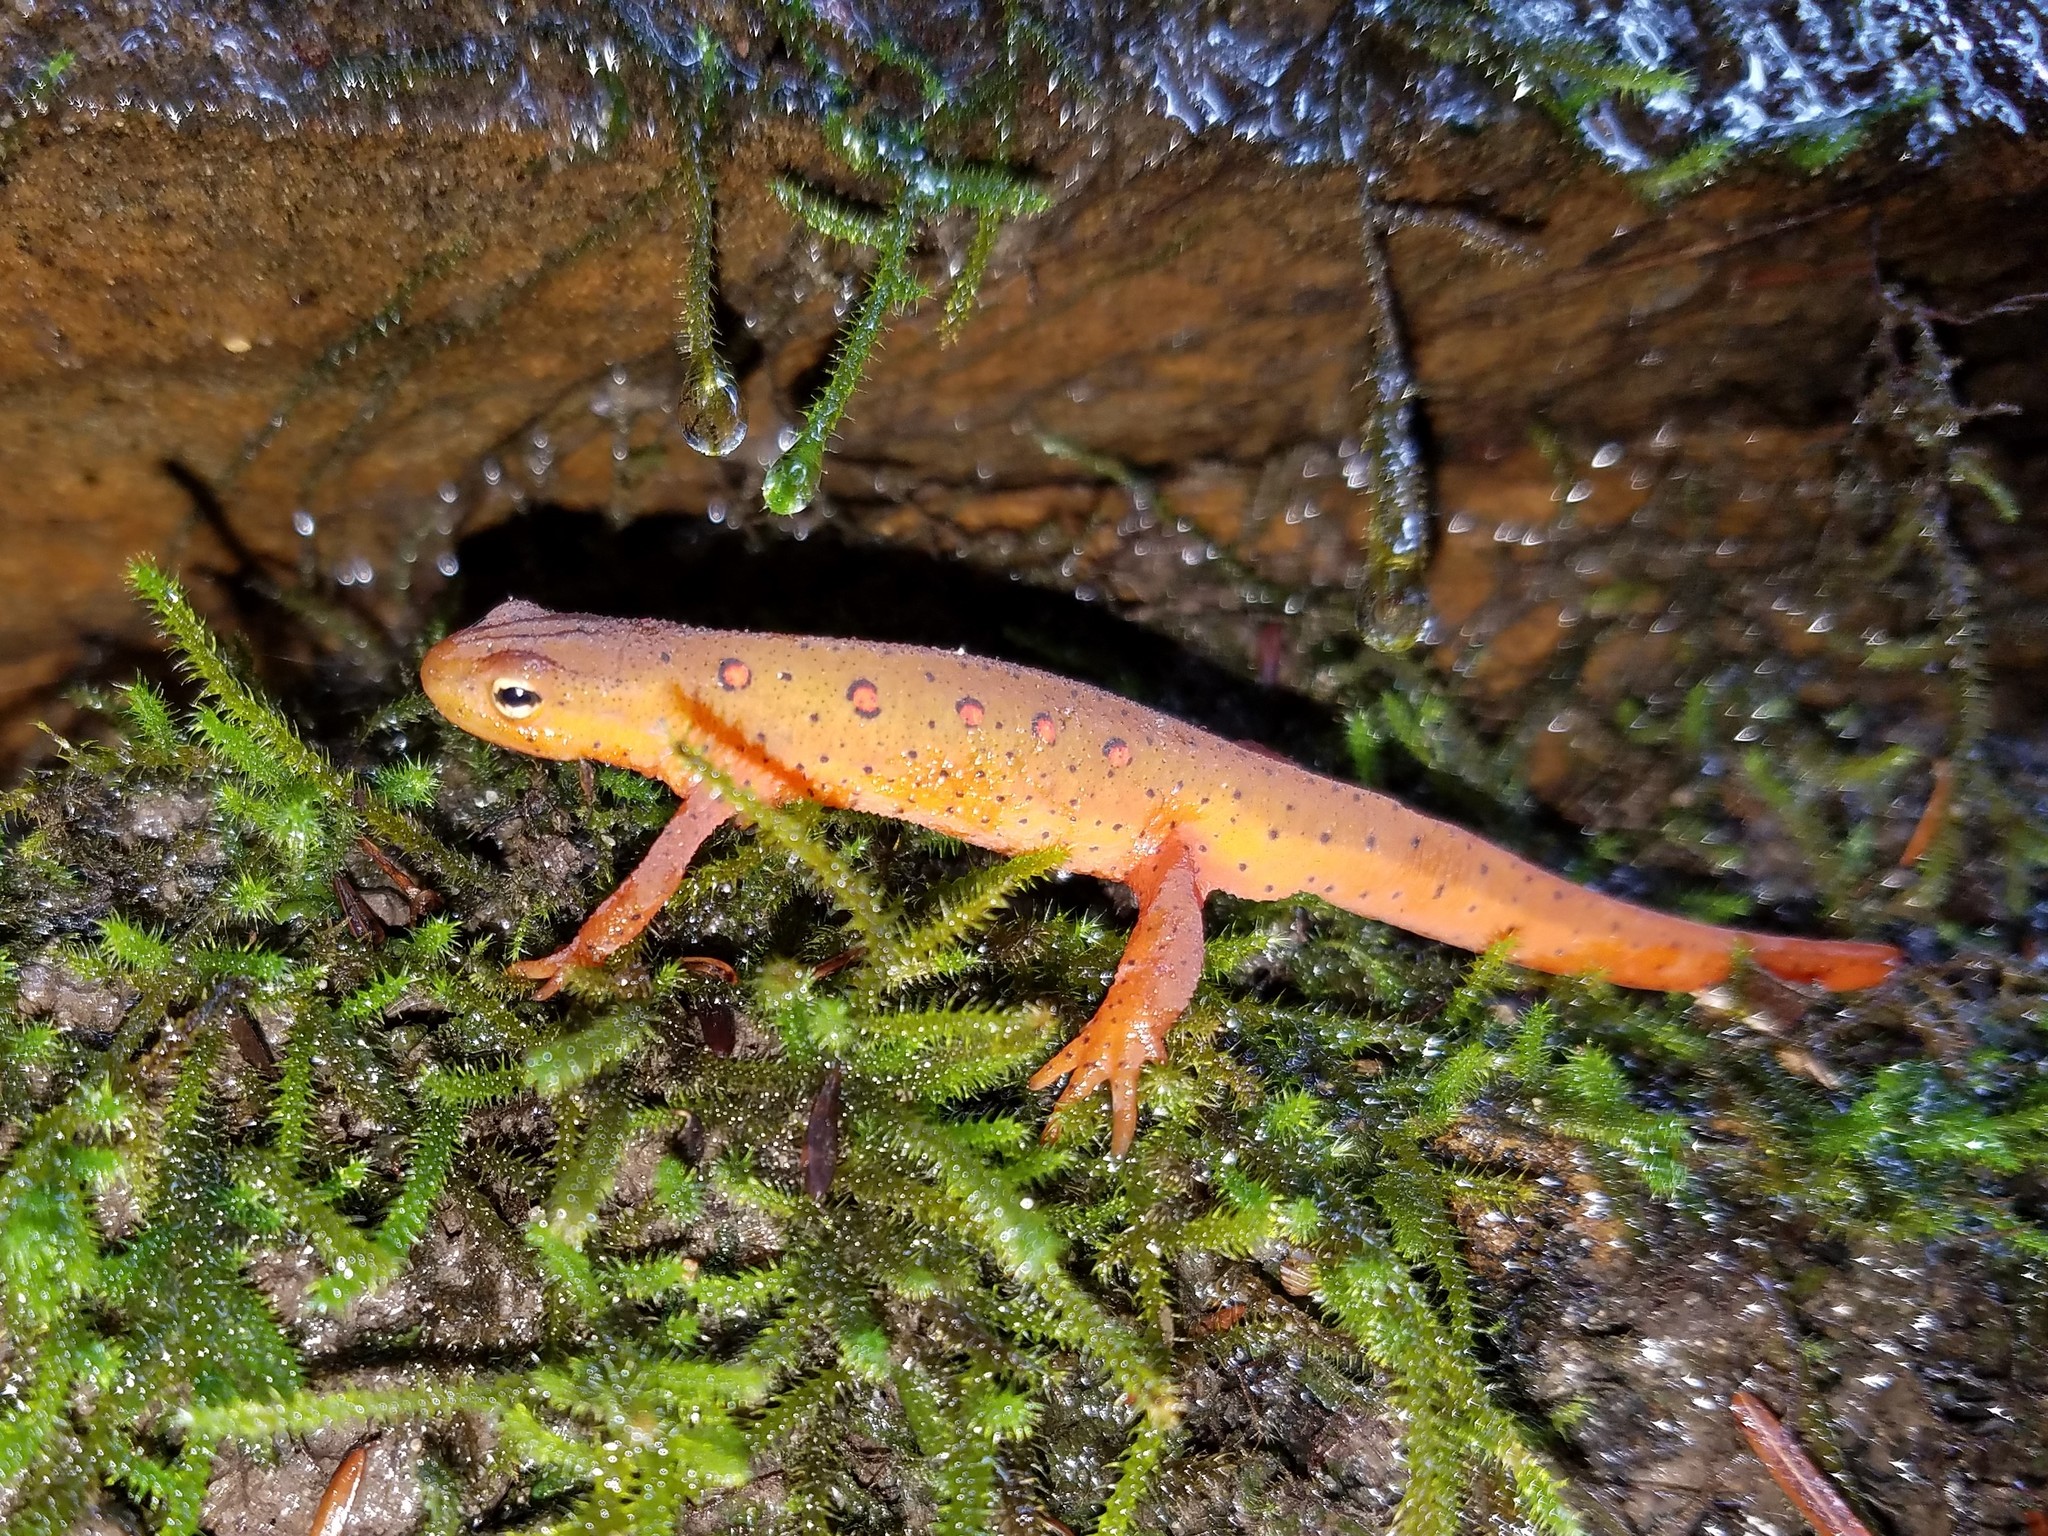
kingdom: Animalia
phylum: Chordata
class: Amphibia
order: Caudata
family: Salamandridae
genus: Notophthalmus
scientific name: Notophthalmus viridescens
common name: Eastern newt
